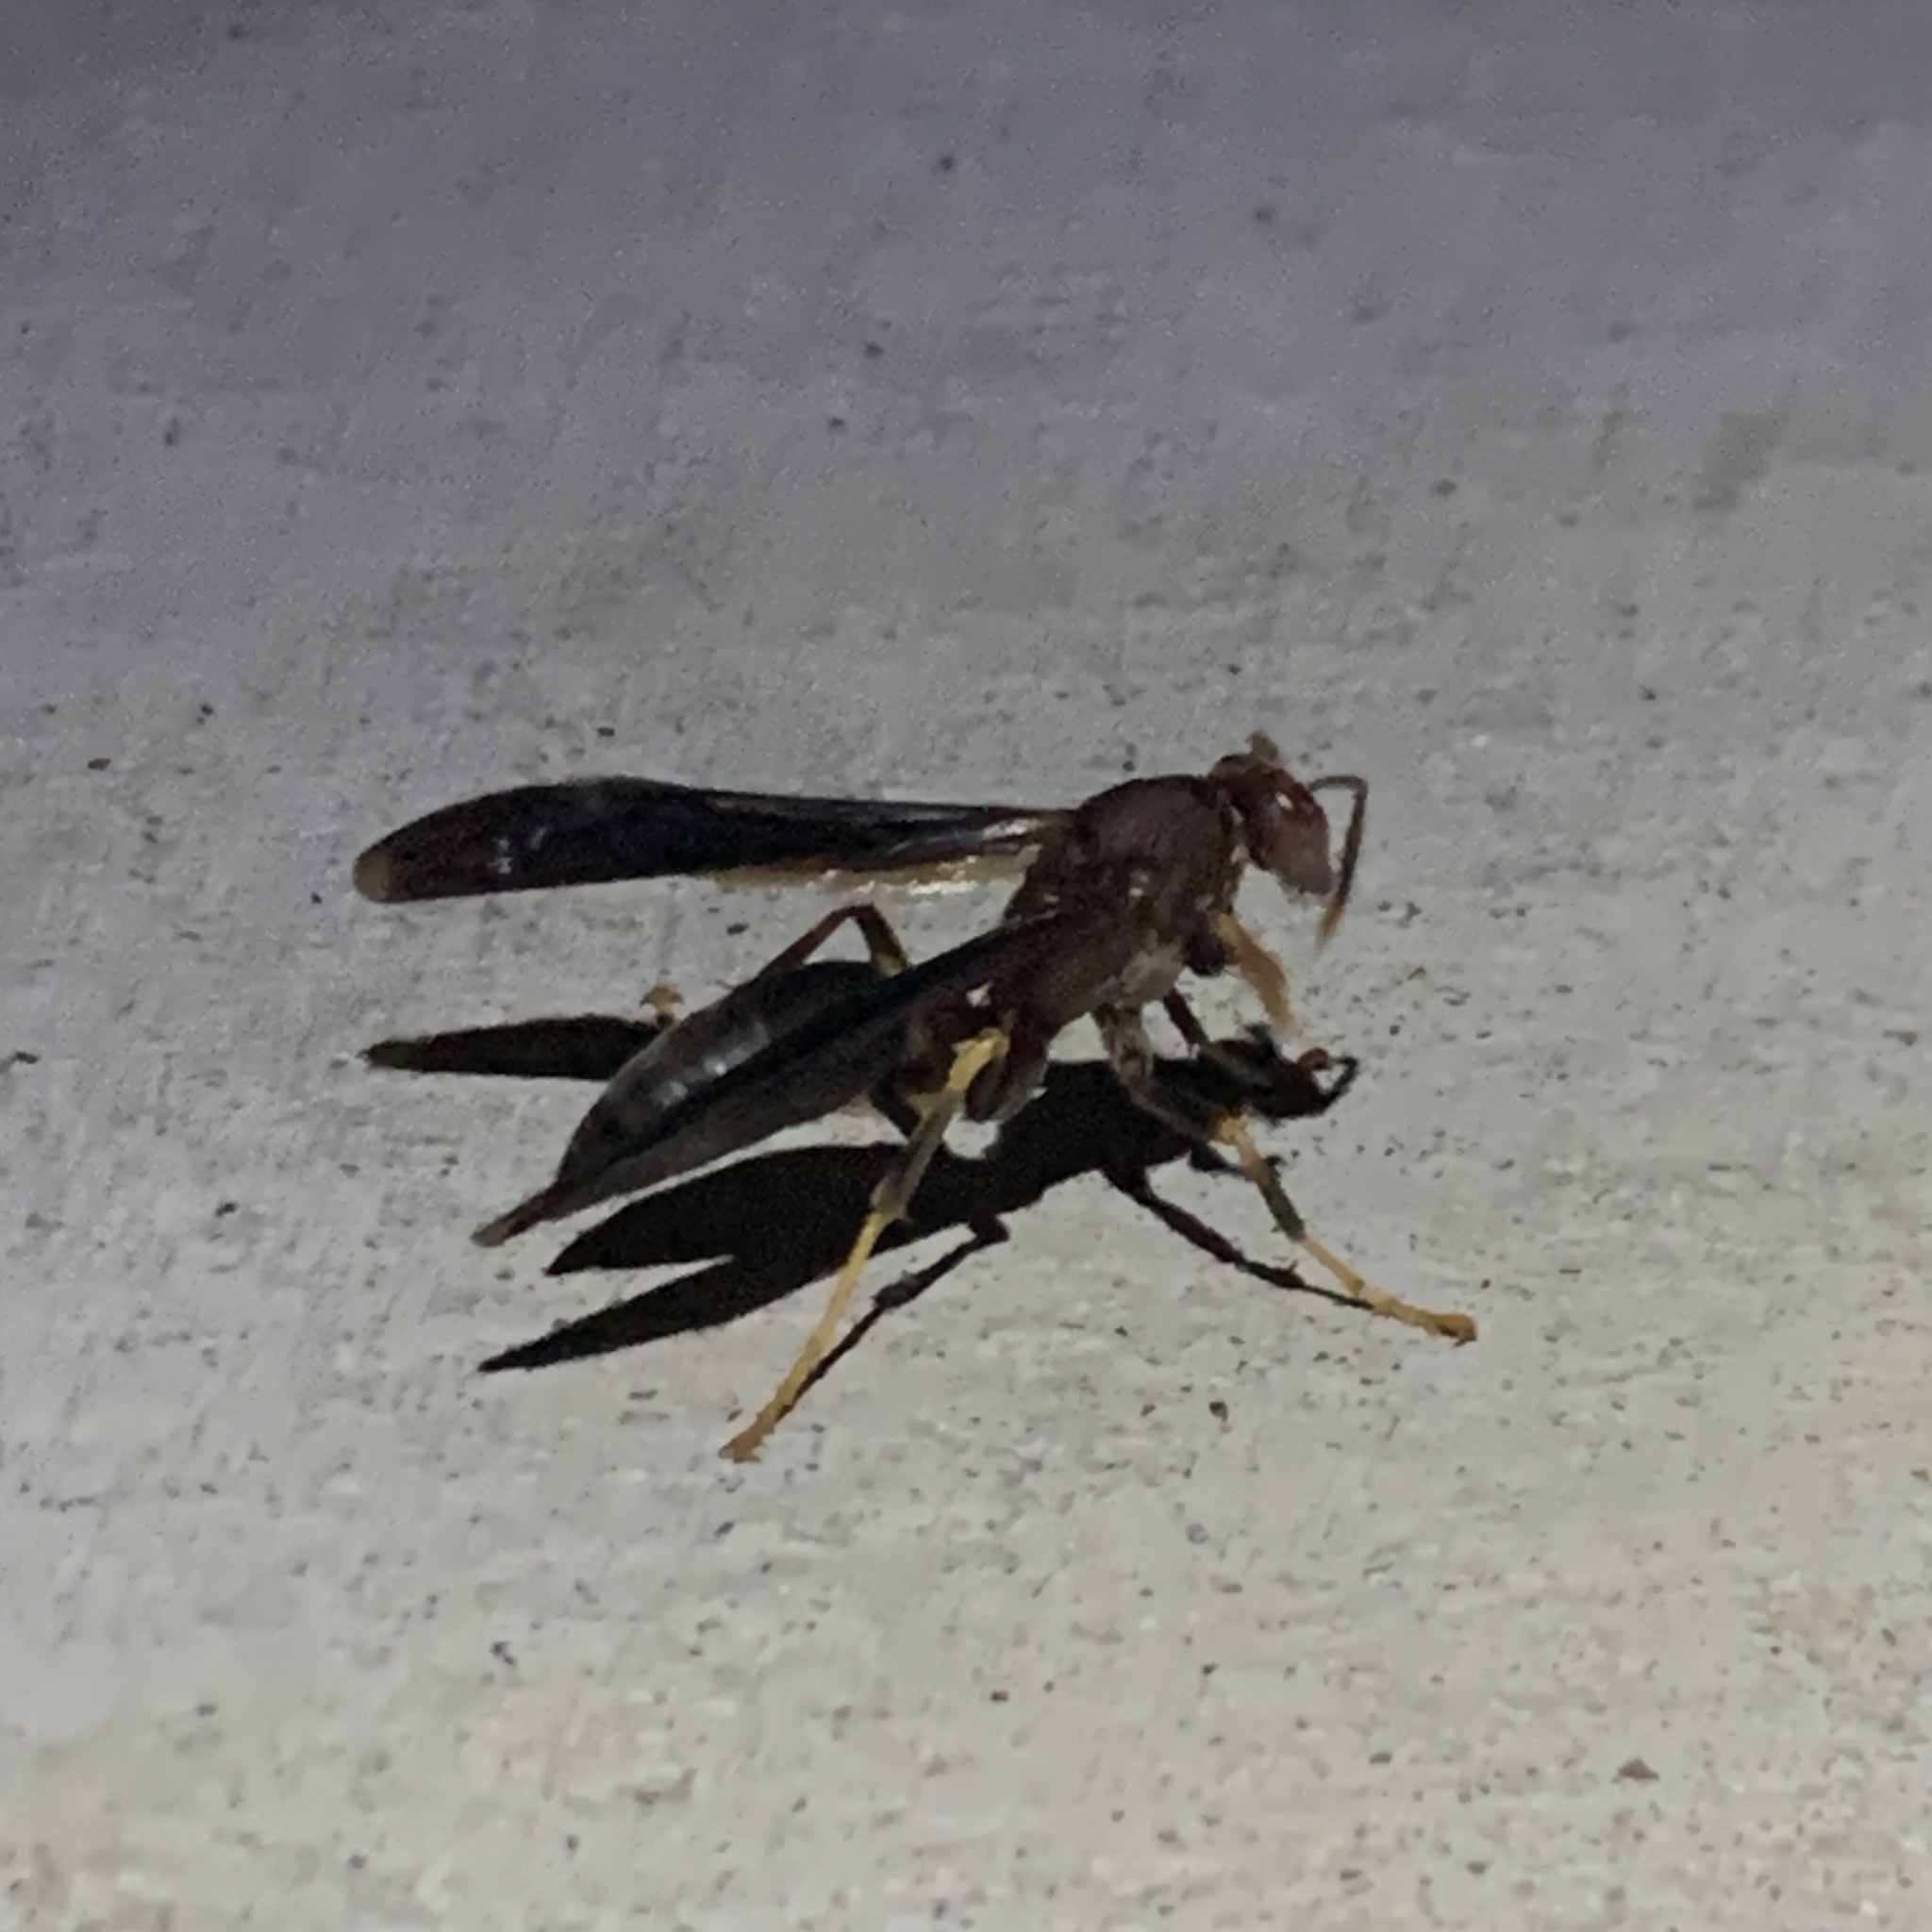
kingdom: Animalia
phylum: Arthropoda
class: Insecta
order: Hymenoptera
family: Eumenidae
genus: Polistes
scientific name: Polistes annularis
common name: Ringed paper wasp
